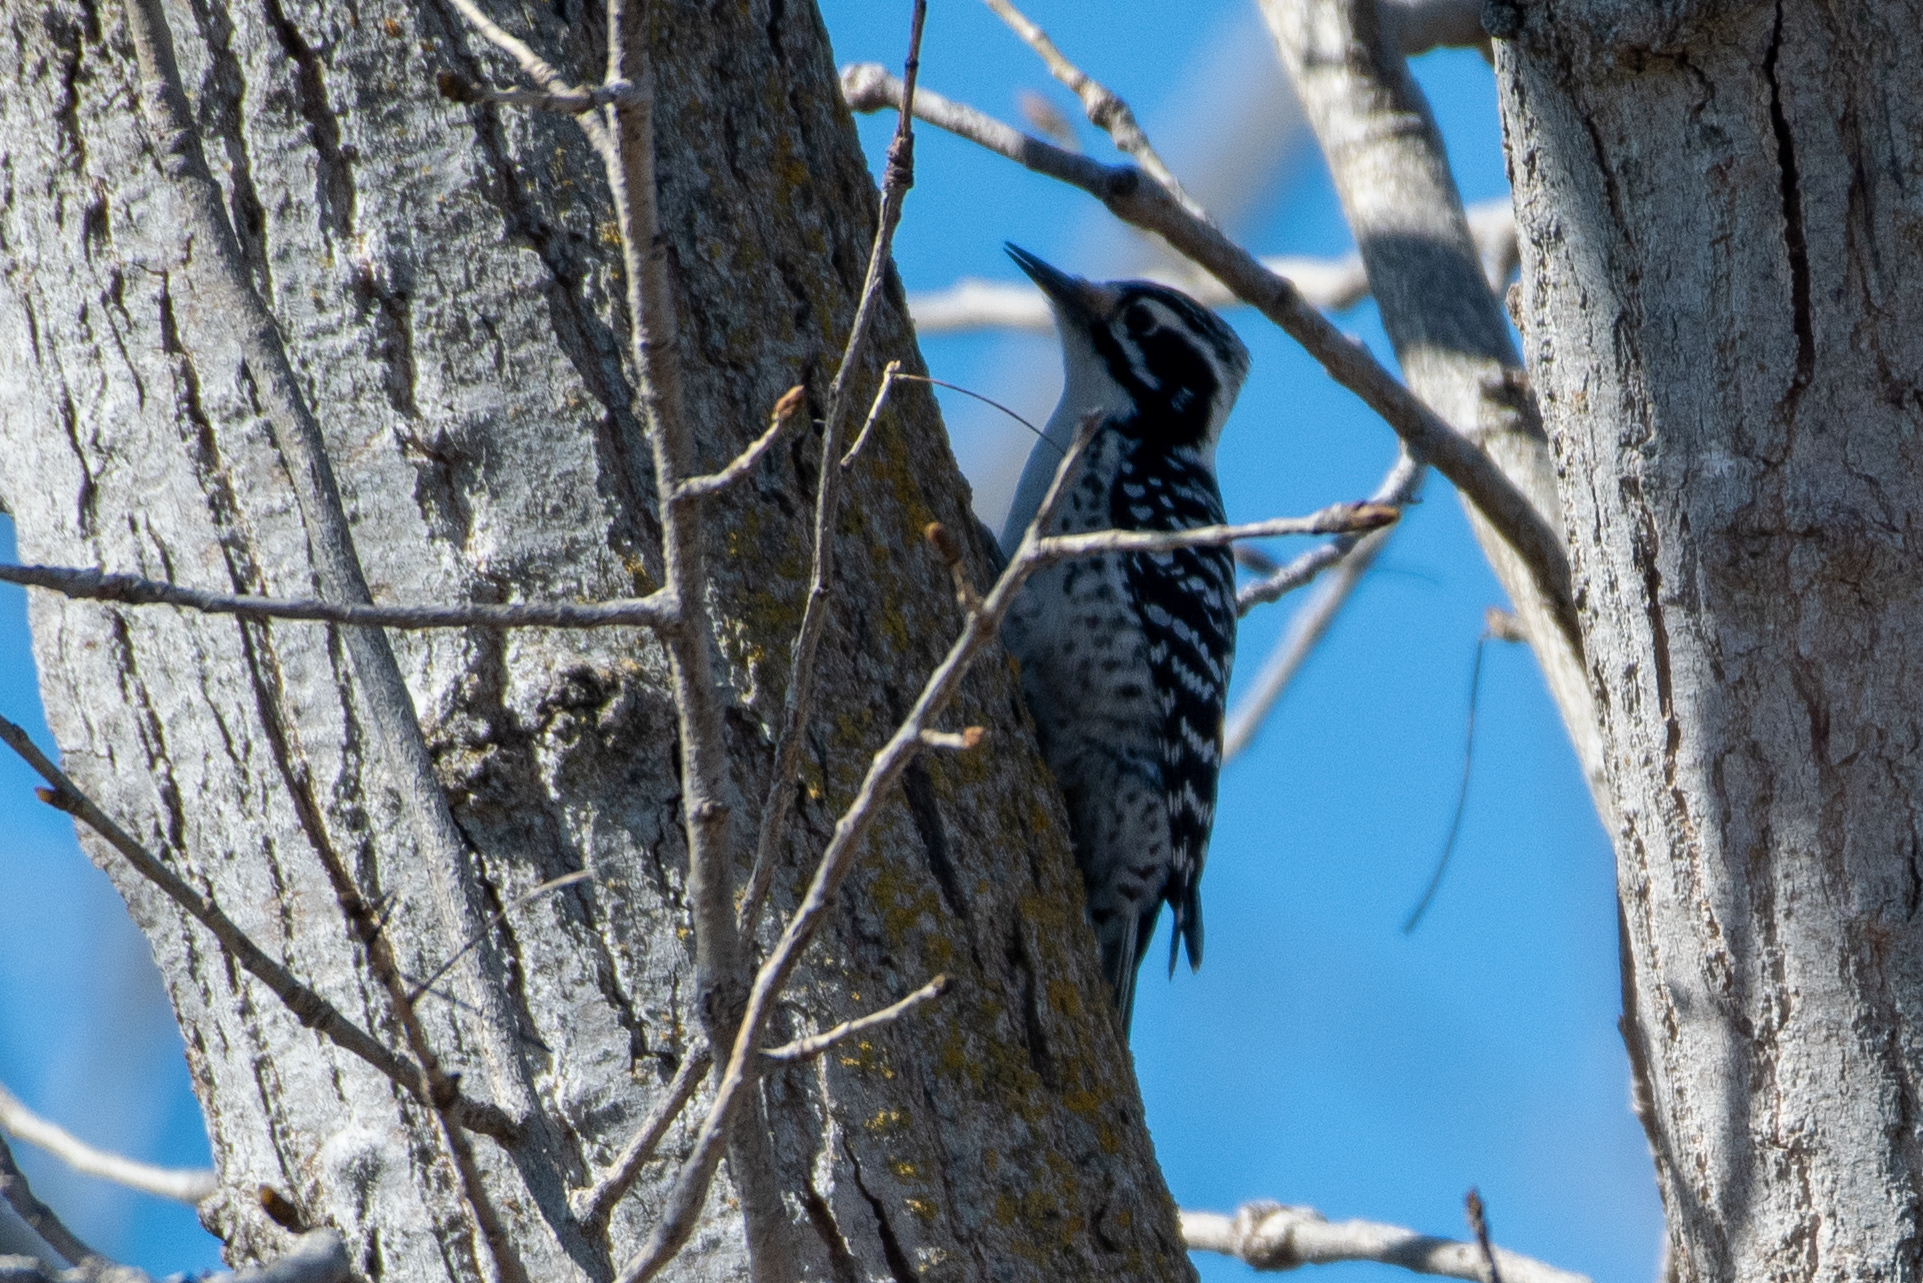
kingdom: Animalia
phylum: Chordata
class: Aves
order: Piciformes
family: Picidae
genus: Dryobates
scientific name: Dryobates nuttallii
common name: Nuttall's woodpecker
